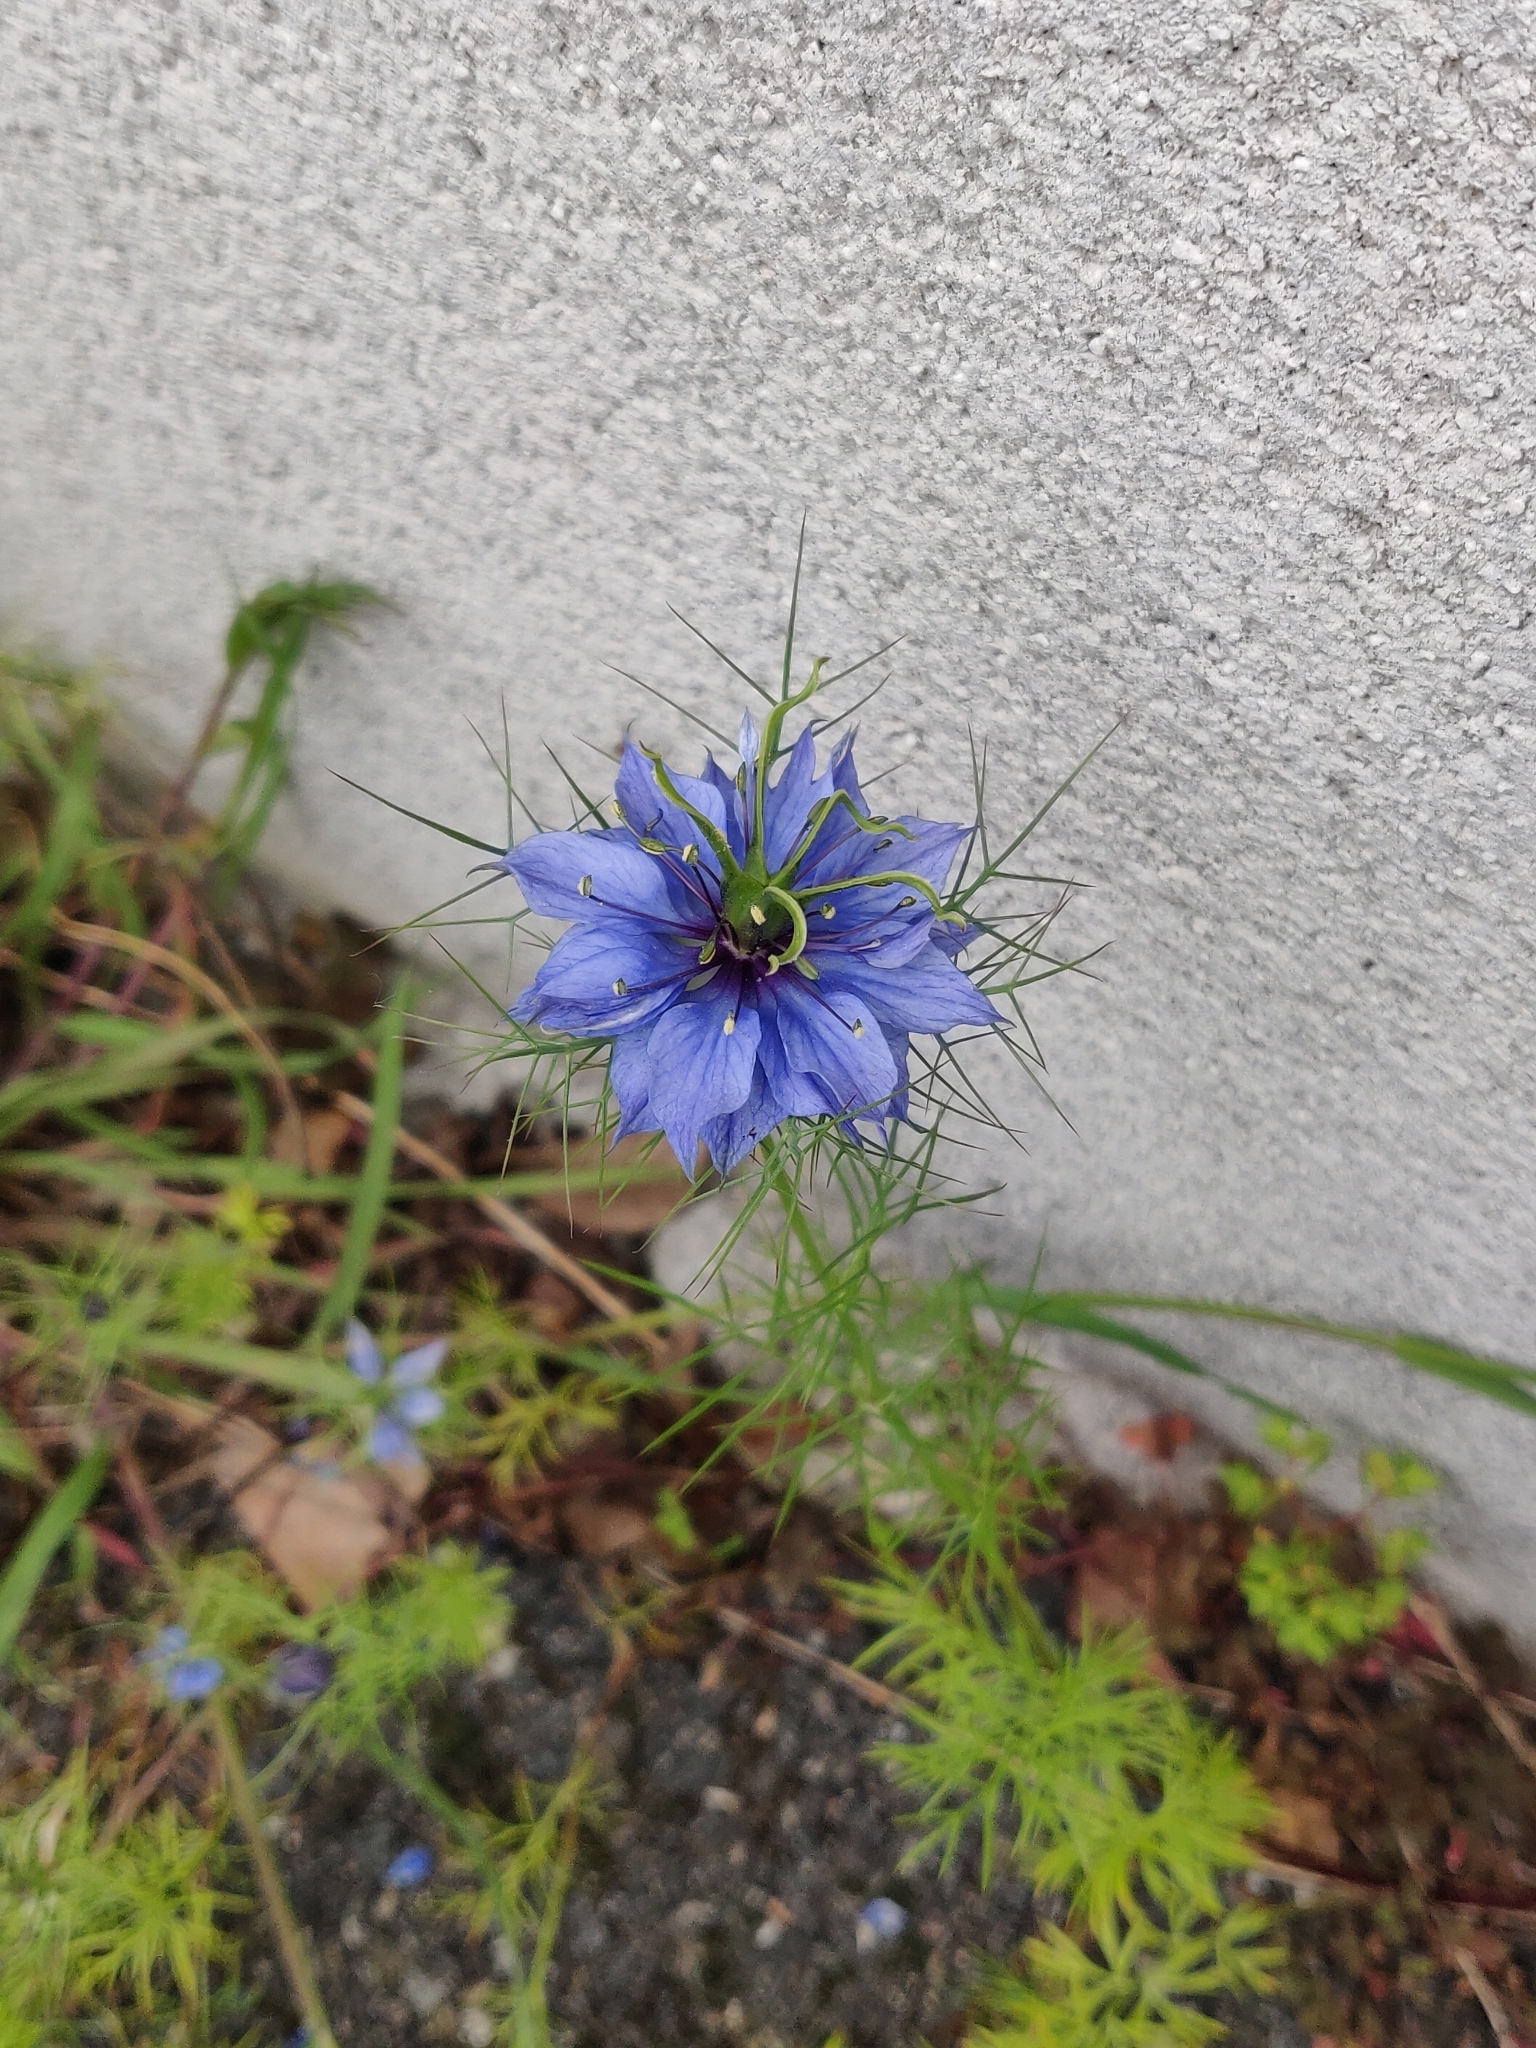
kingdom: Plantae
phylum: Tracheophyta
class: Magnoliopsida
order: Ranunculales
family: Ranunculaceae
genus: Nigella
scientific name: Nigella damascena
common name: Love-in-a-mist
